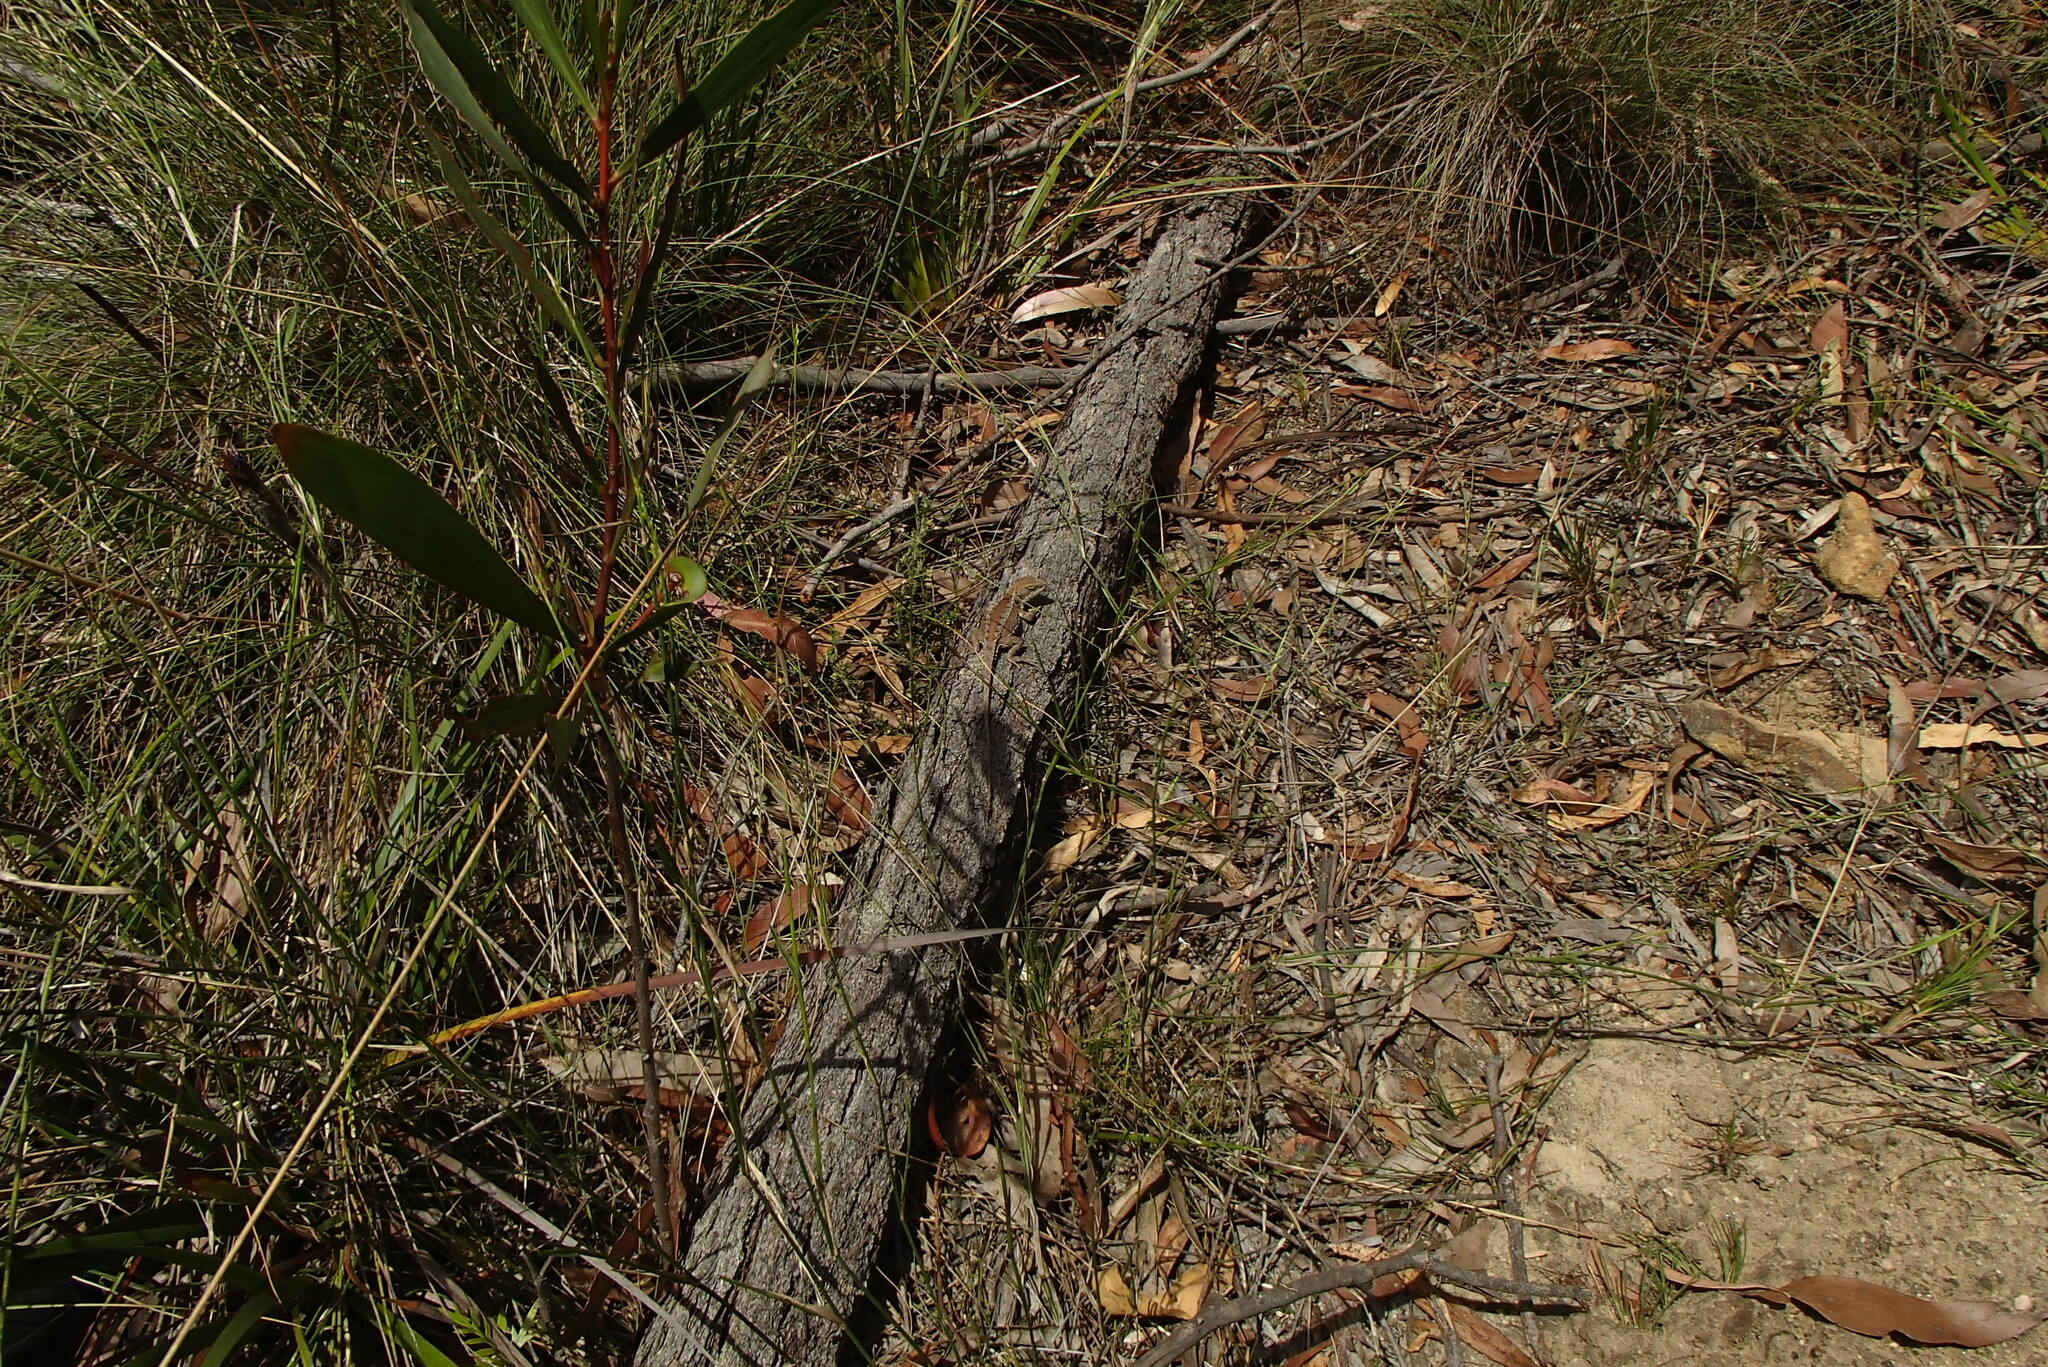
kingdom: Animalia
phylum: Chordata
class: Squamata
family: Agamidae
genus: Rankinia
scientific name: Rankinia diemensis
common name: Mountain dragon
